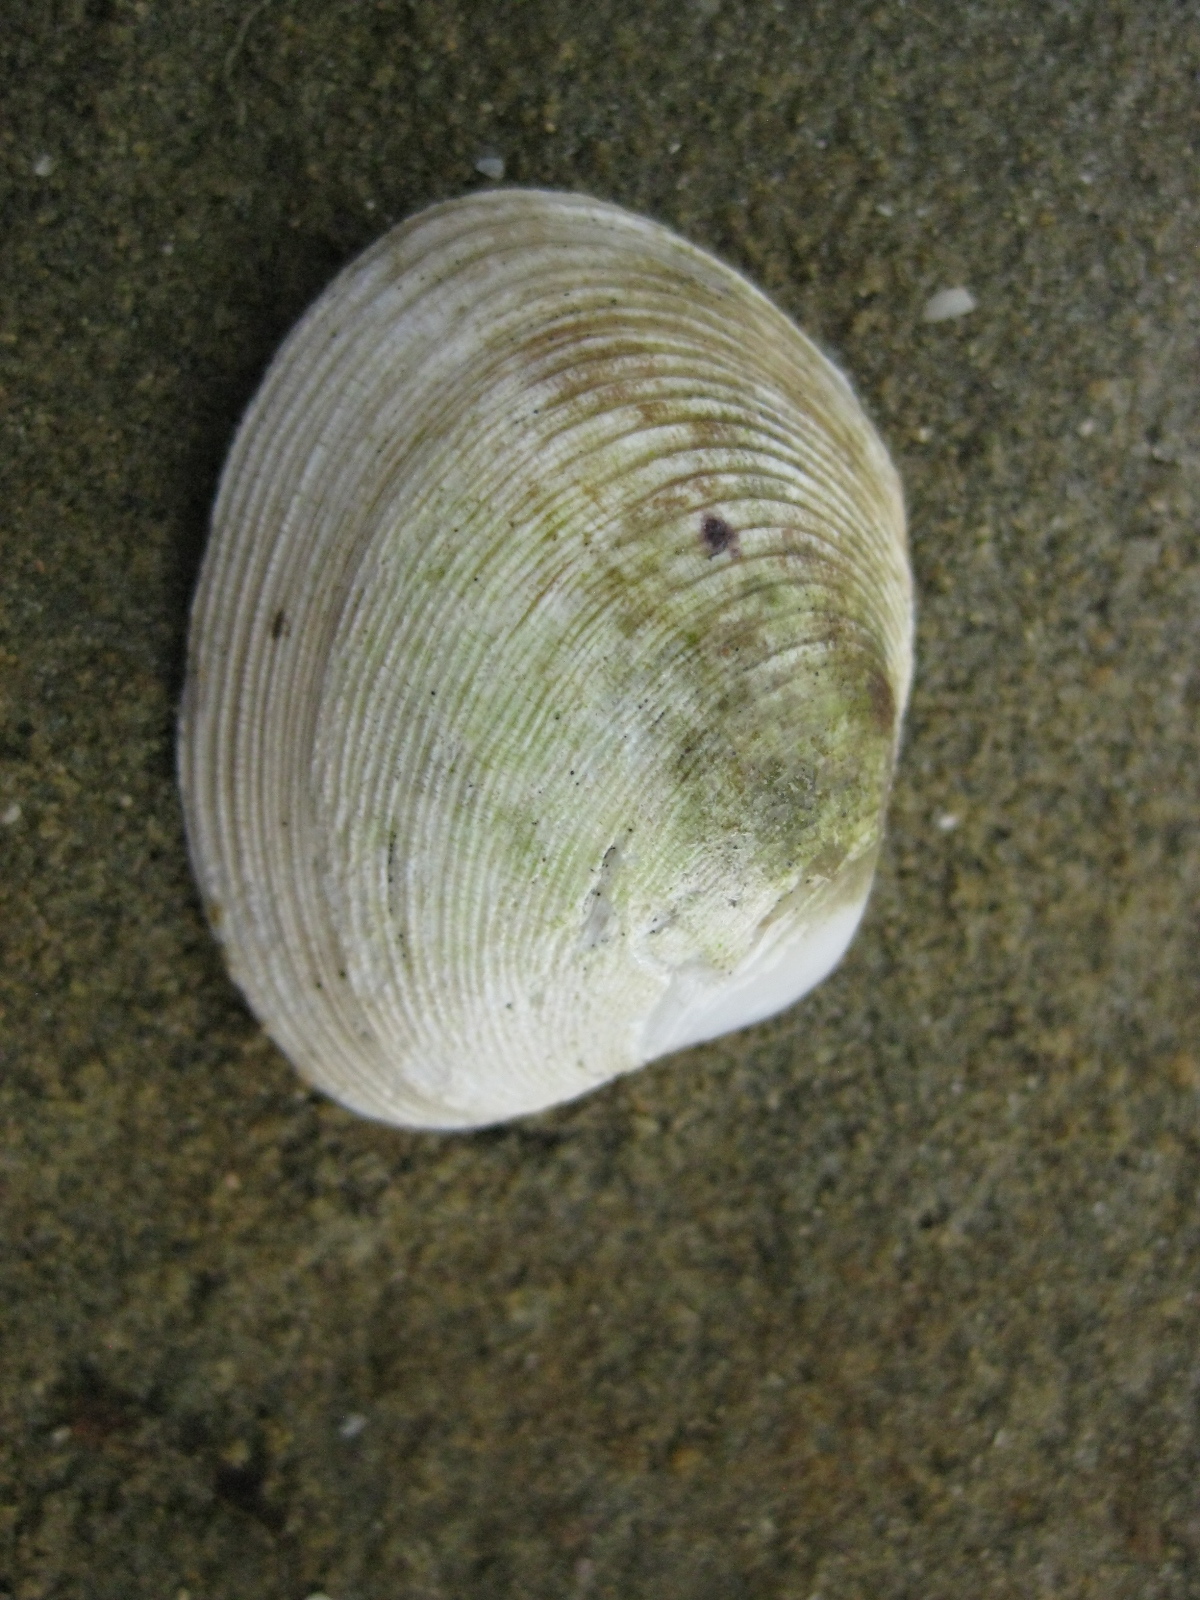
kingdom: Animalia
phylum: Mollusca
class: Bivalvia
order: Venerida
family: Veneridae
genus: Venerupis
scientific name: Venerupis largillierti
